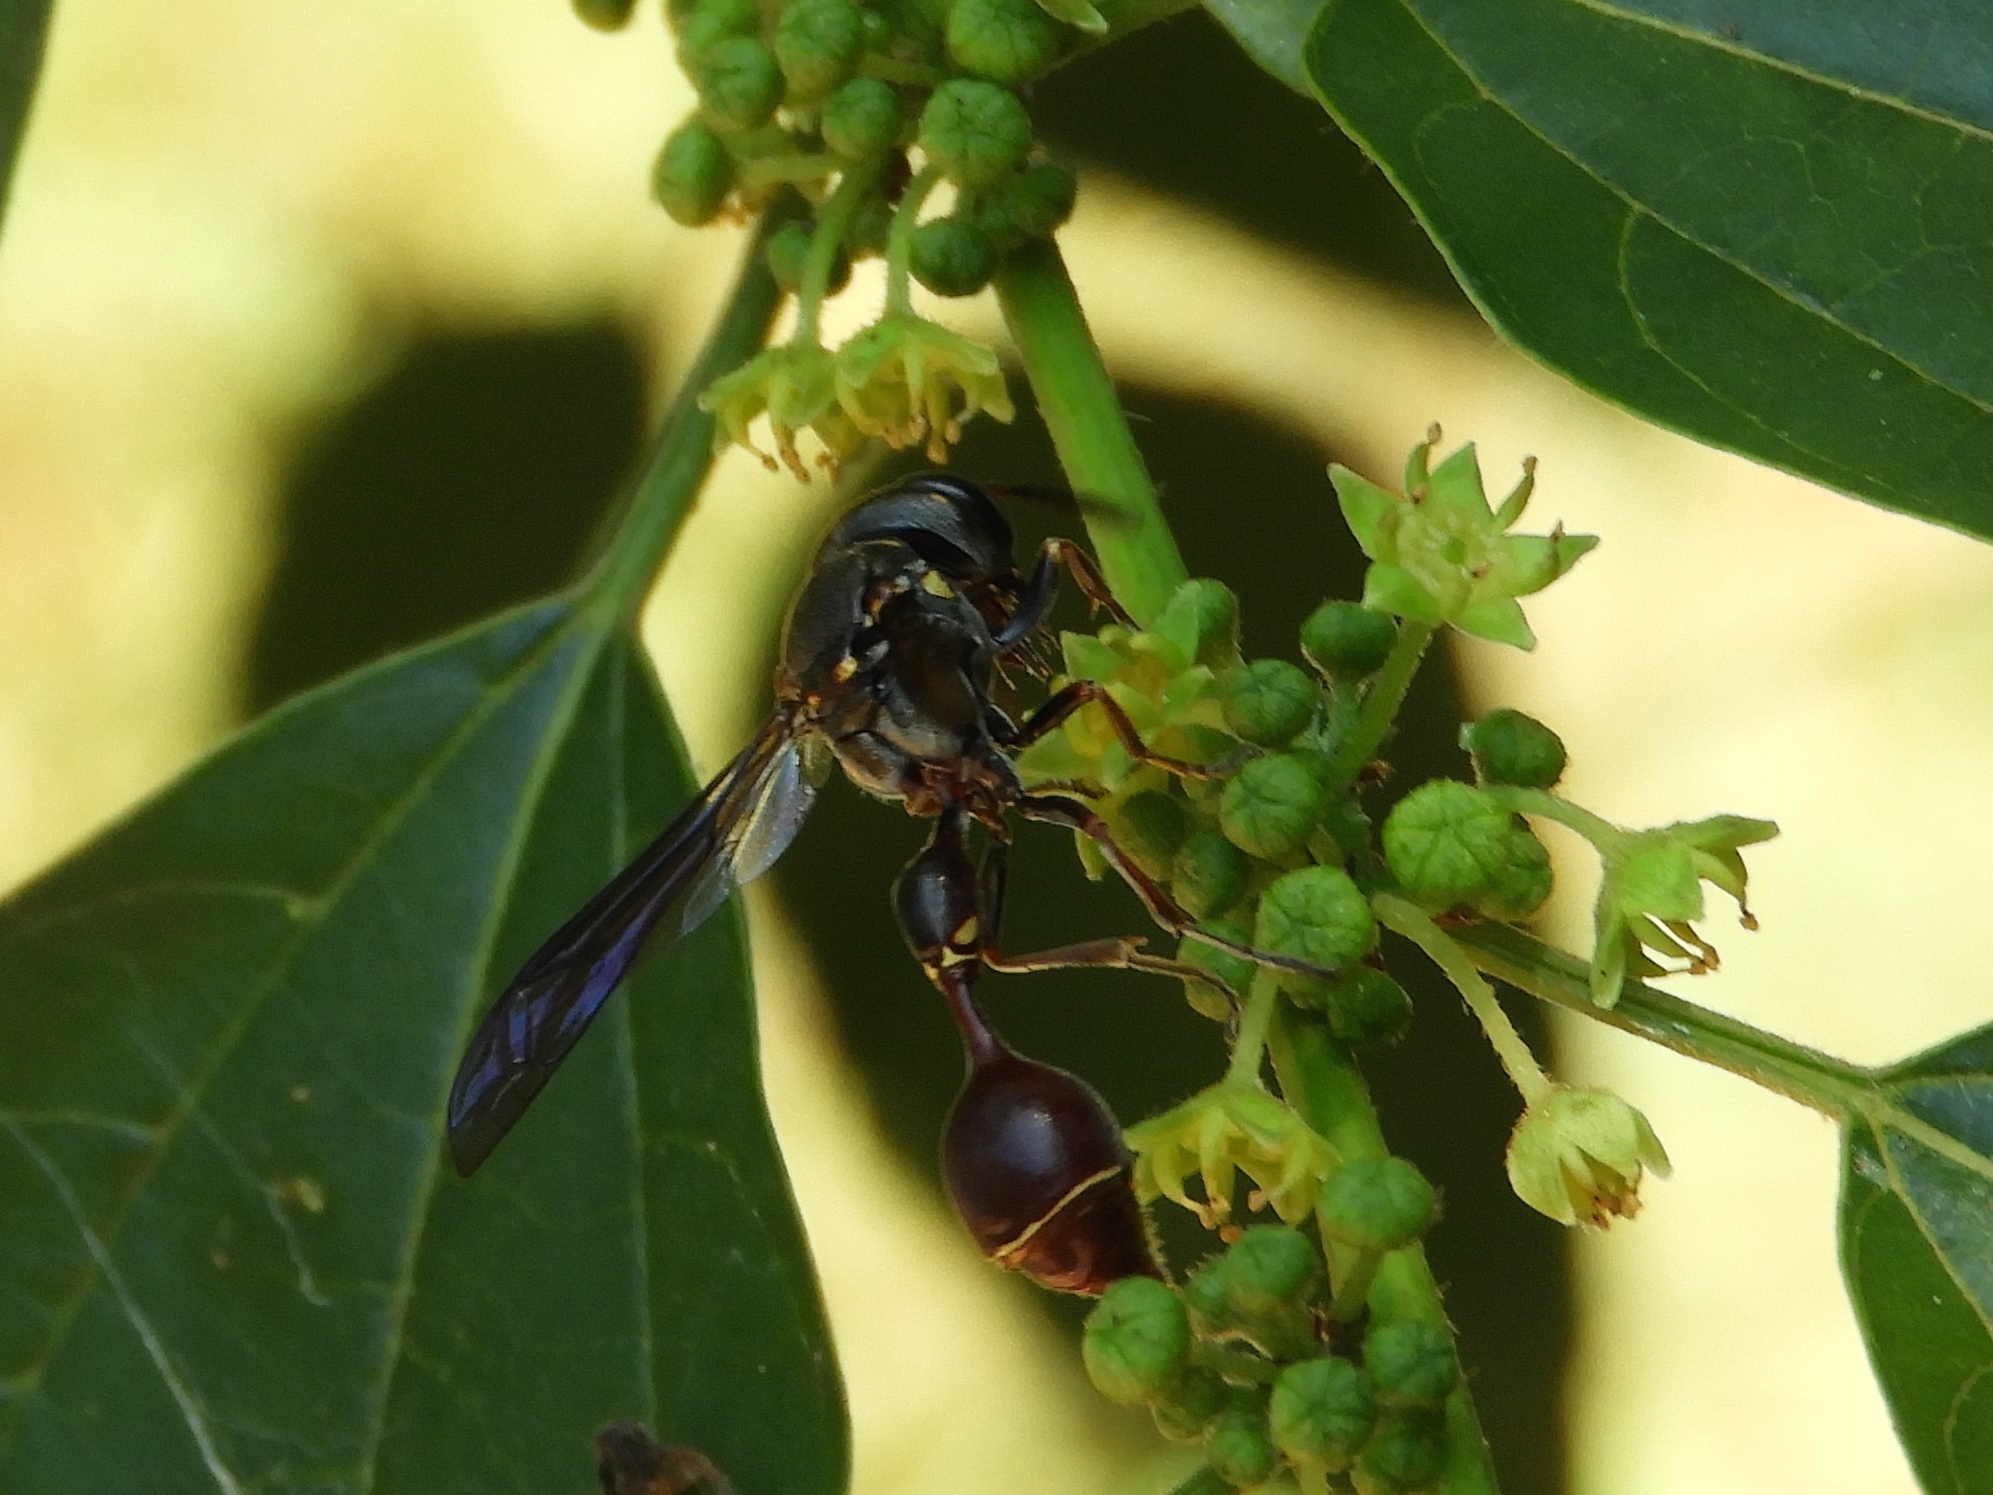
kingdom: Animalia
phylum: Arthropoda
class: Insecta
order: Hymenoptera
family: Eumenidae
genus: Zethus
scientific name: Zethus smithii
